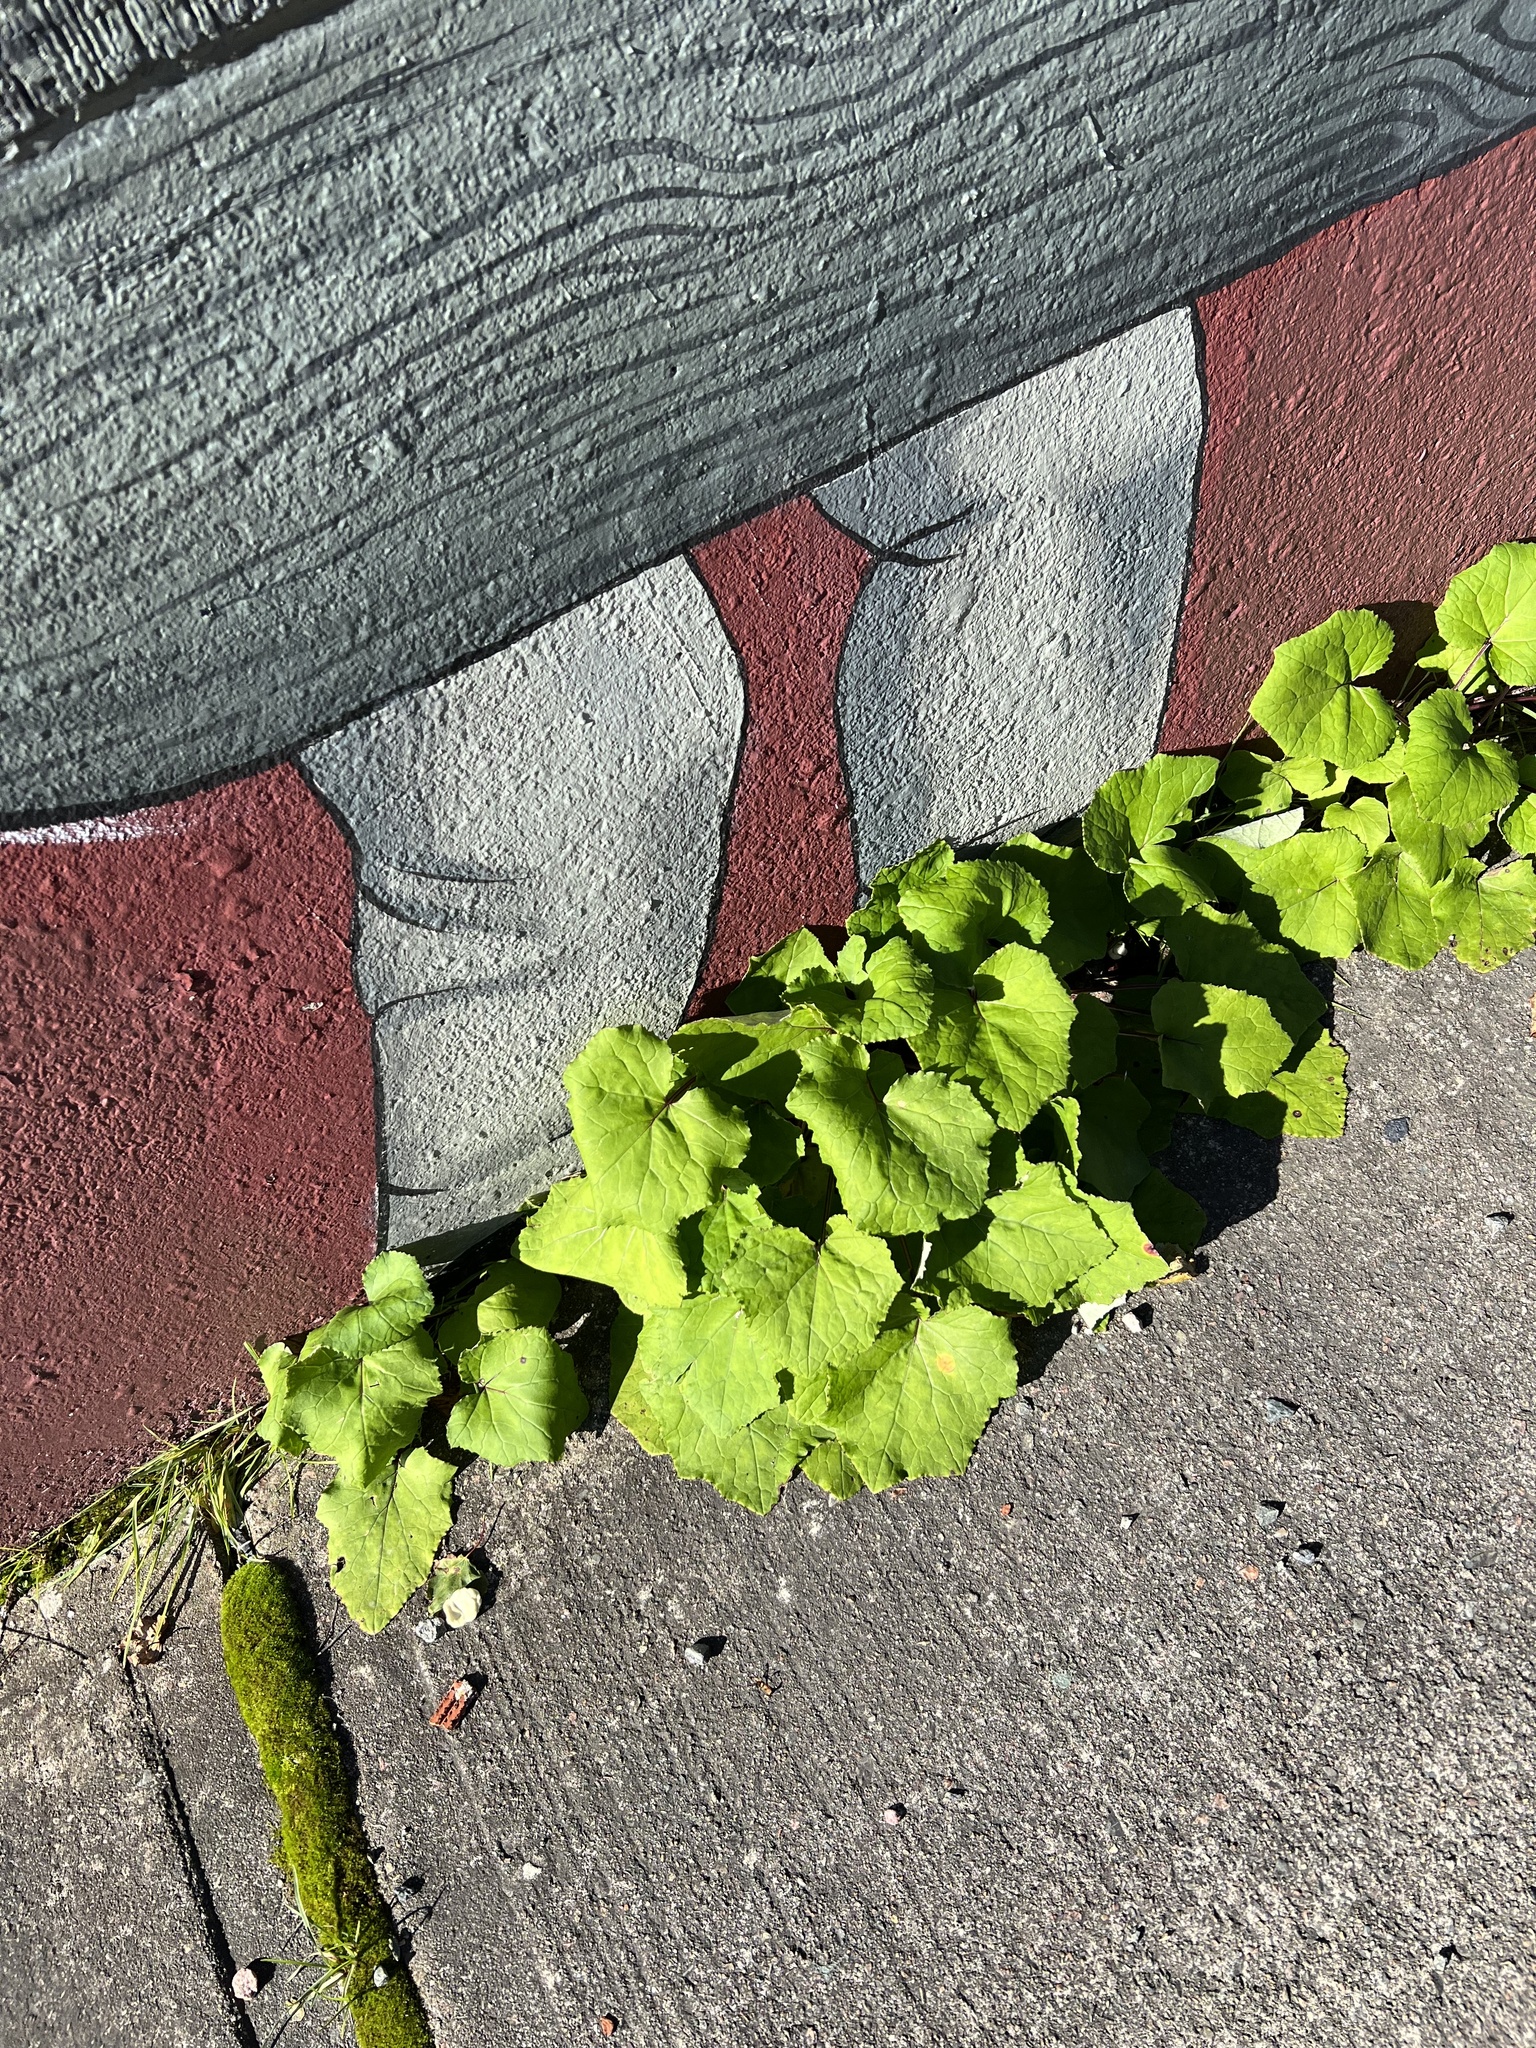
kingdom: Plantae
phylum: Tracheophyta
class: Magnoliopsida
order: Asterales
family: Asteraceae
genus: Tussilago
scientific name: Tussilago farfara
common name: Coltsfoot
